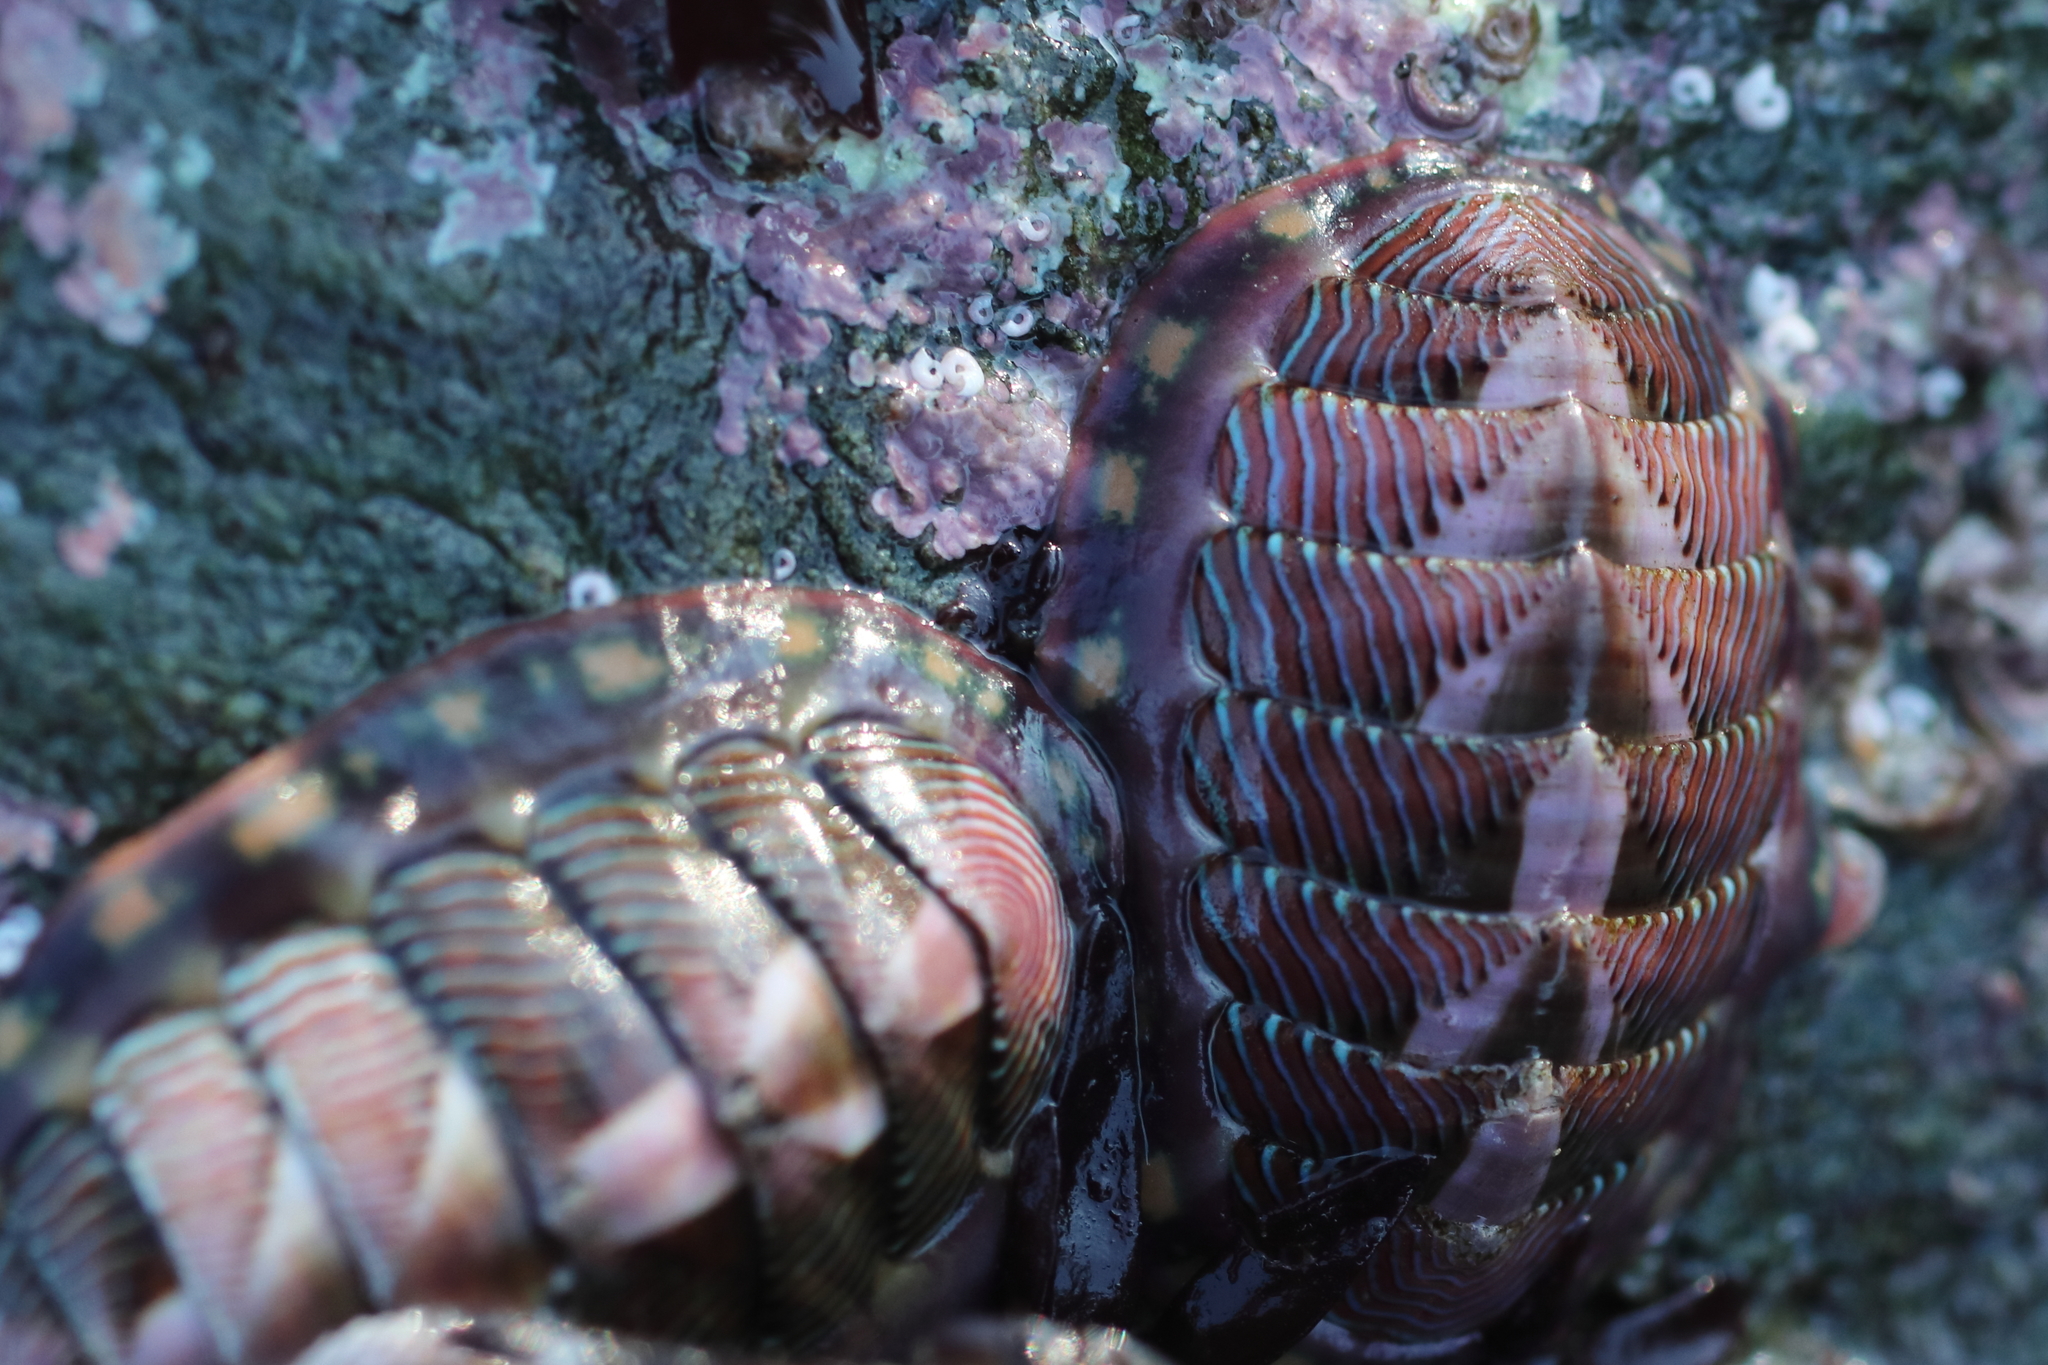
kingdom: Animalia
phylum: Mollusca
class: Polyplacophora
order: Chitonida
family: Tonicellidae
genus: Tonicella
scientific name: Tonicella lineata
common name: Lined chiton
